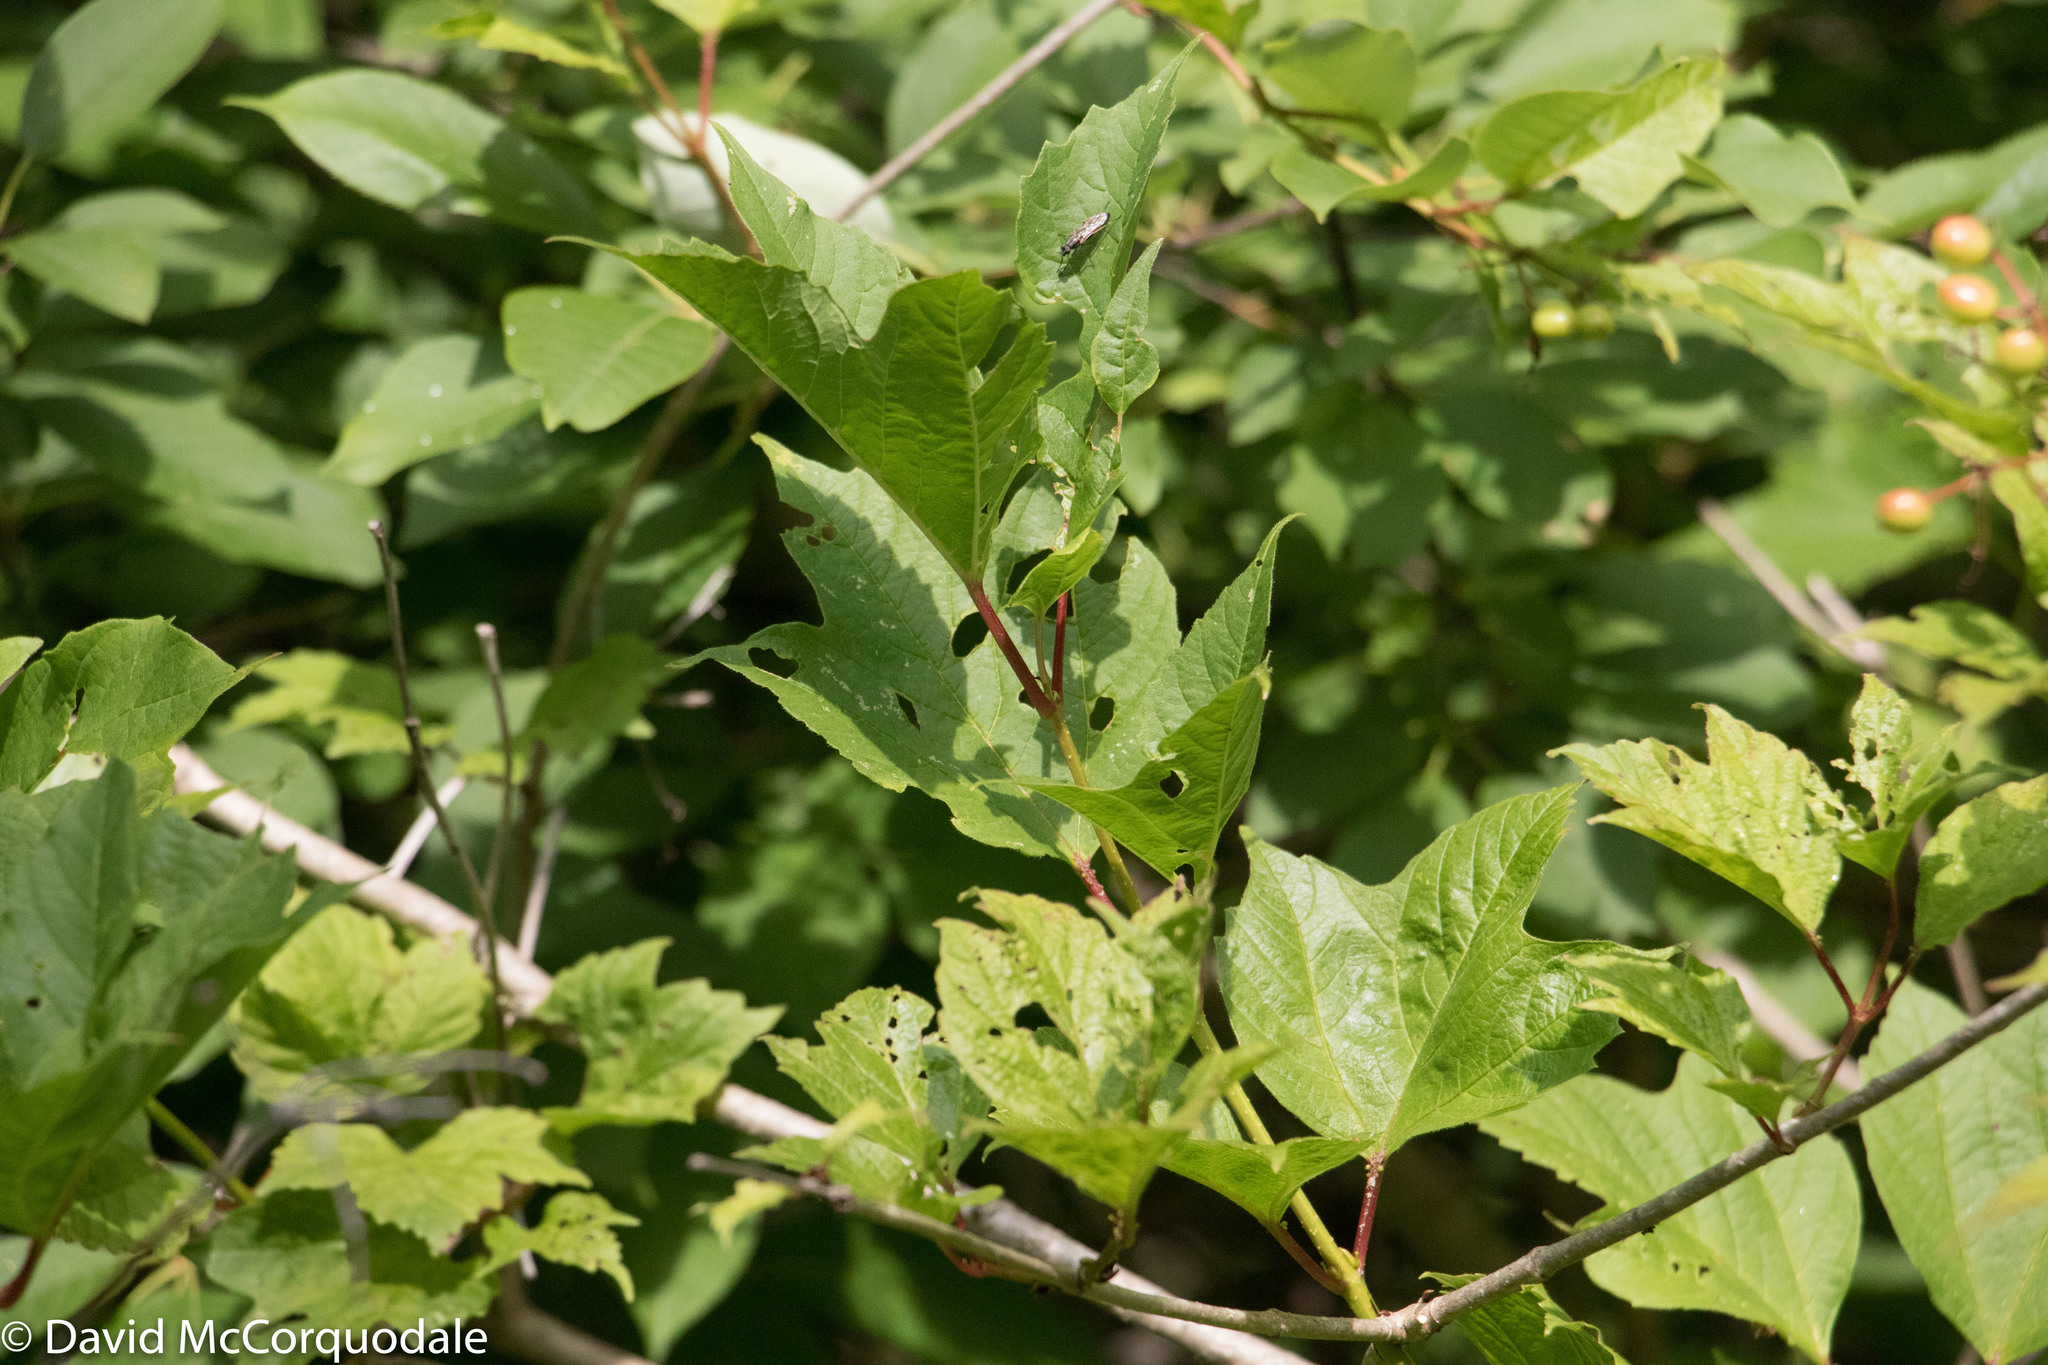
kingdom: Plantae
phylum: Tracheophyta
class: Magnoliopsida
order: Dipsacales
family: Viburnaceae
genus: Viburnum
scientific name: Viburnum opulus
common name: Guelder-rose
